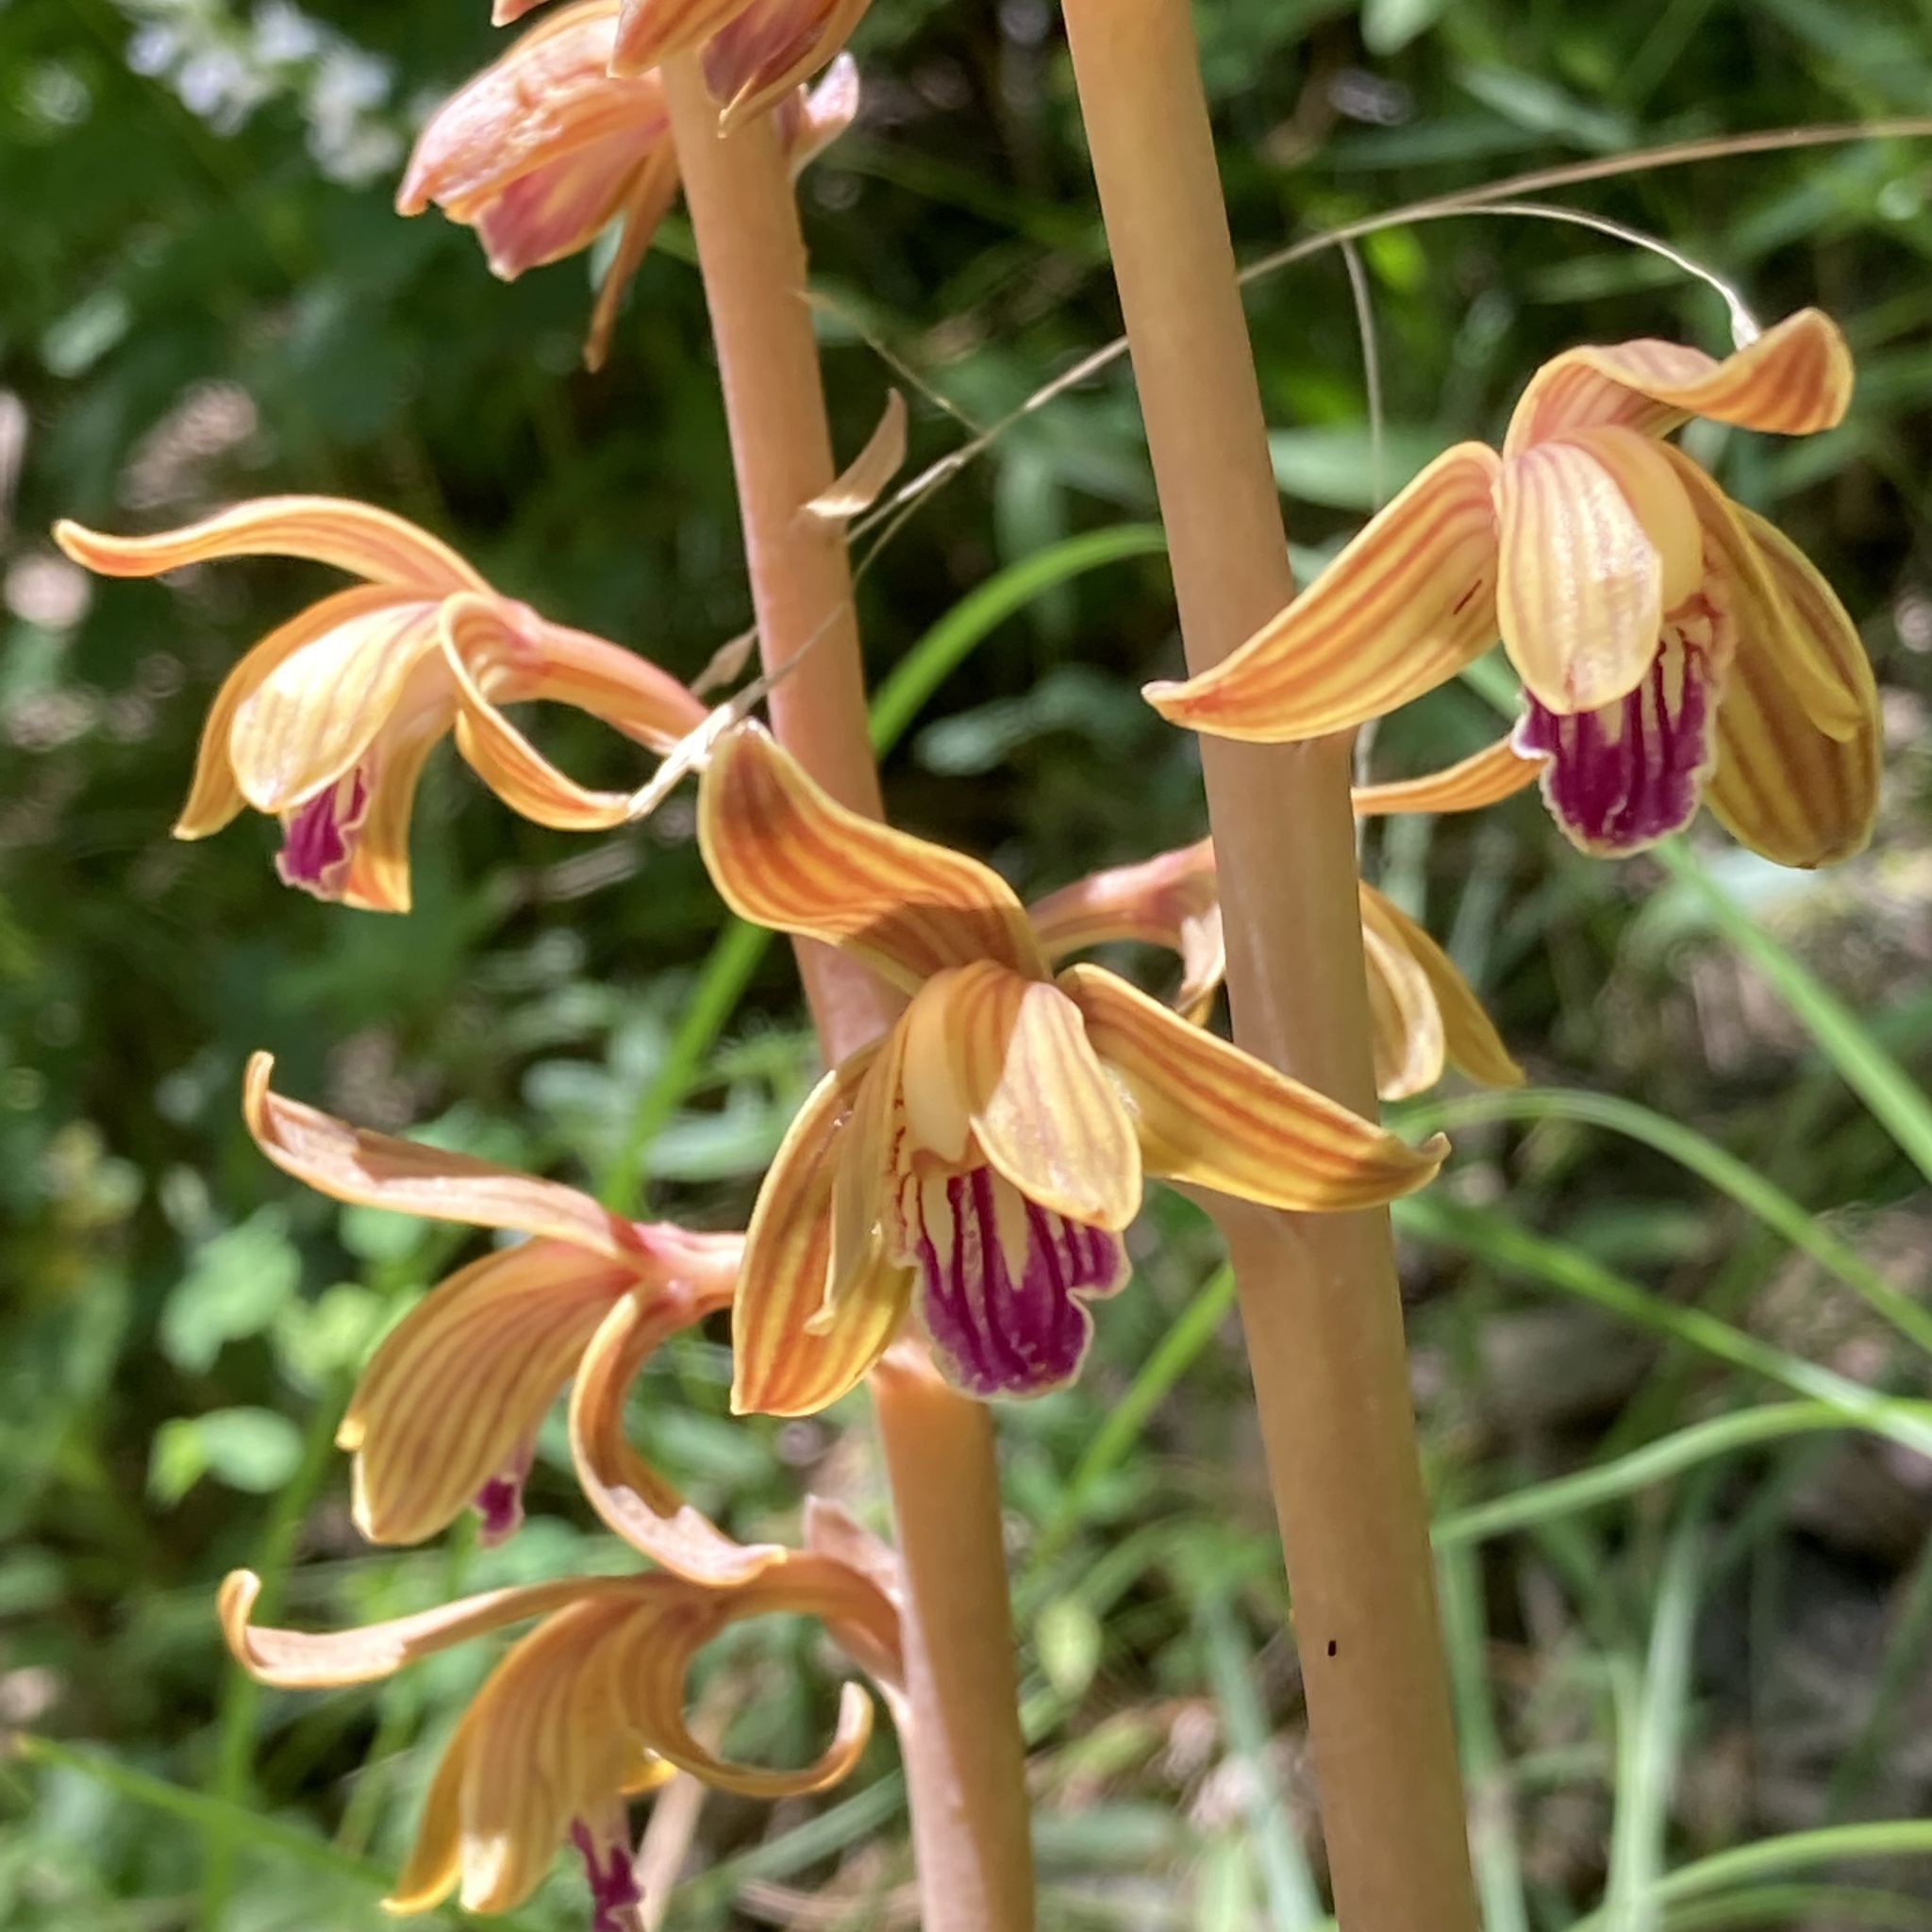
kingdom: Plantae
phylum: Tracheophyta
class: Liliopsida
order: Asparagales
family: Orchidaceae
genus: Bletia
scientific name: Bletia spicata
